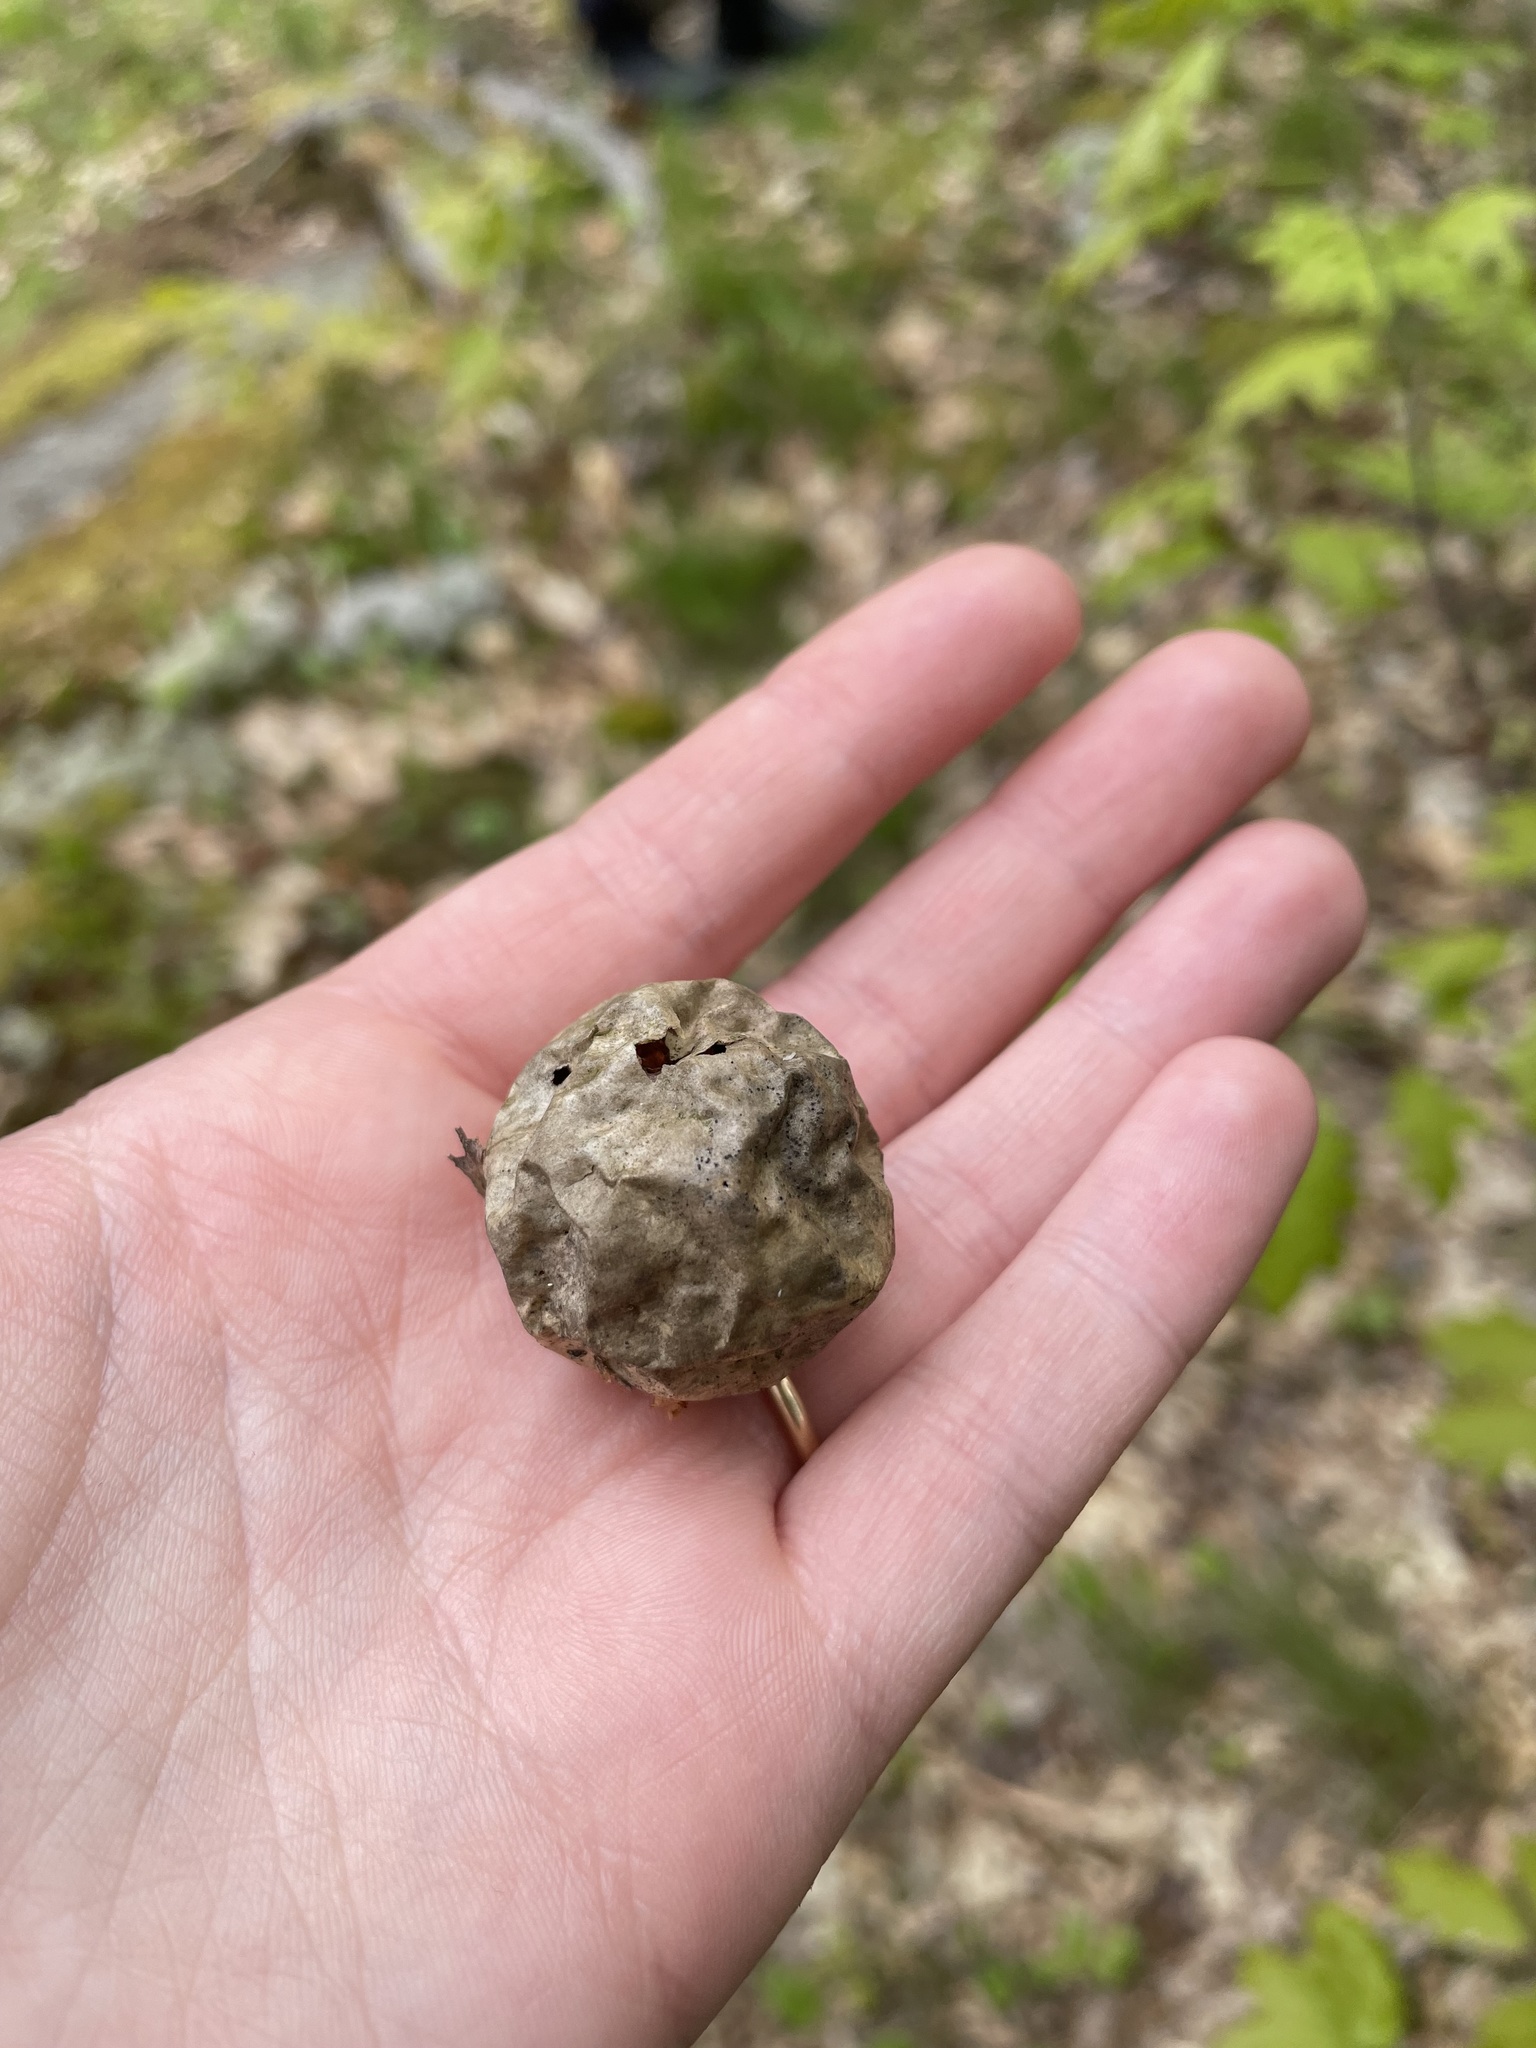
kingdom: Animalia
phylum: Arthropoda
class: Insecta
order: Hymenoptera
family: Cynipidae
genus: Amphibolips
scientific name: Amphibolips
